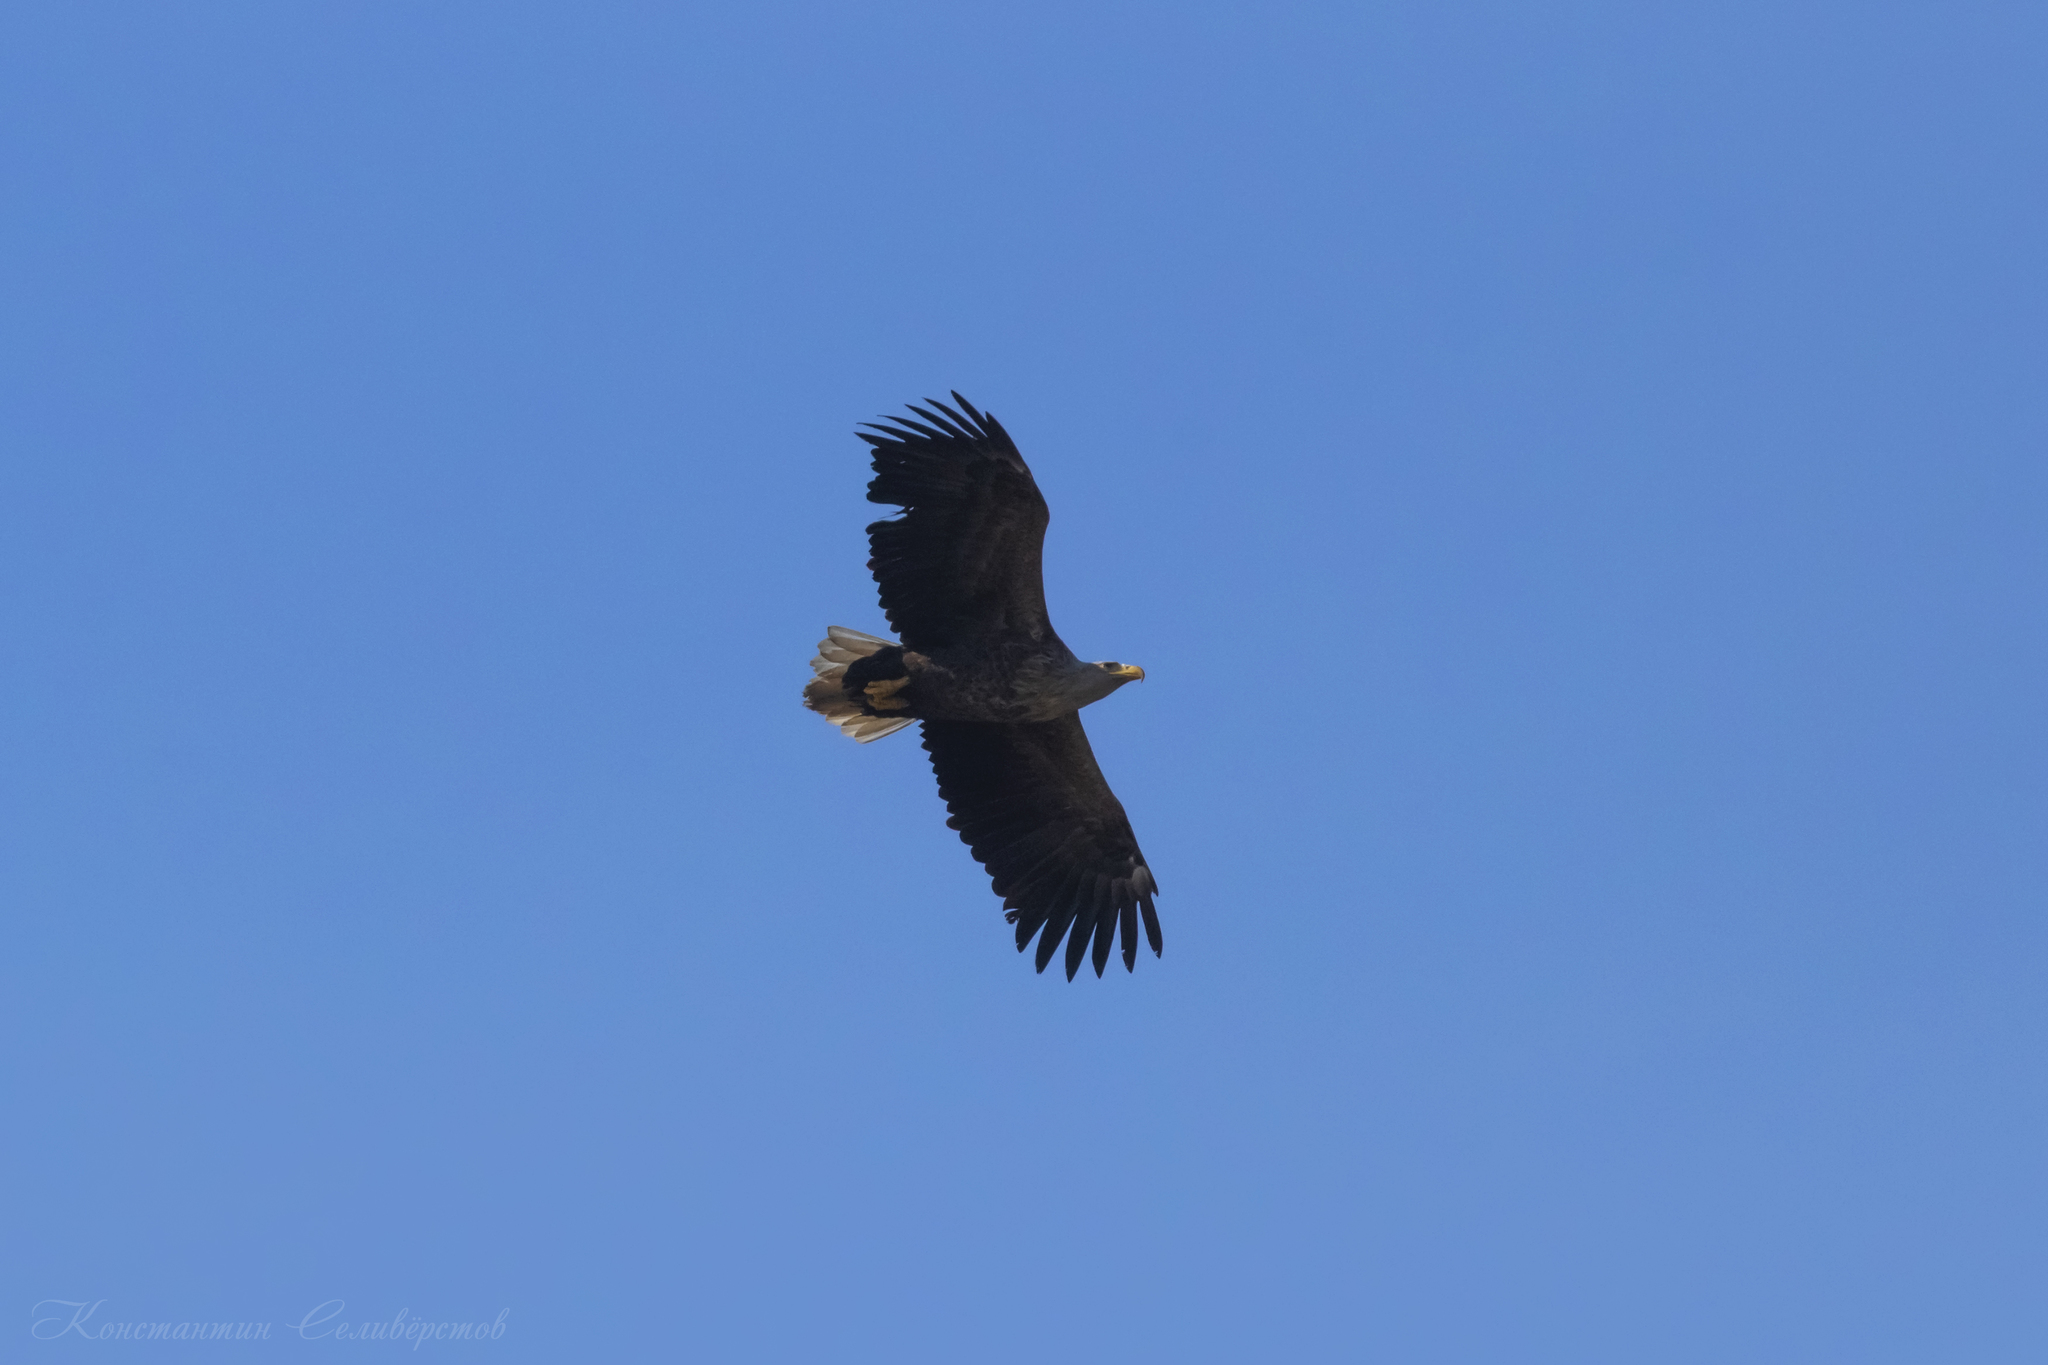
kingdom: Animalia
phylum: Chordata
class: Aves
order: Accipitriformes
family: Accipitridae
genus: Haliaeetus
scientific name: Haliaeetus albicilla
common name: White-tailed eagle
